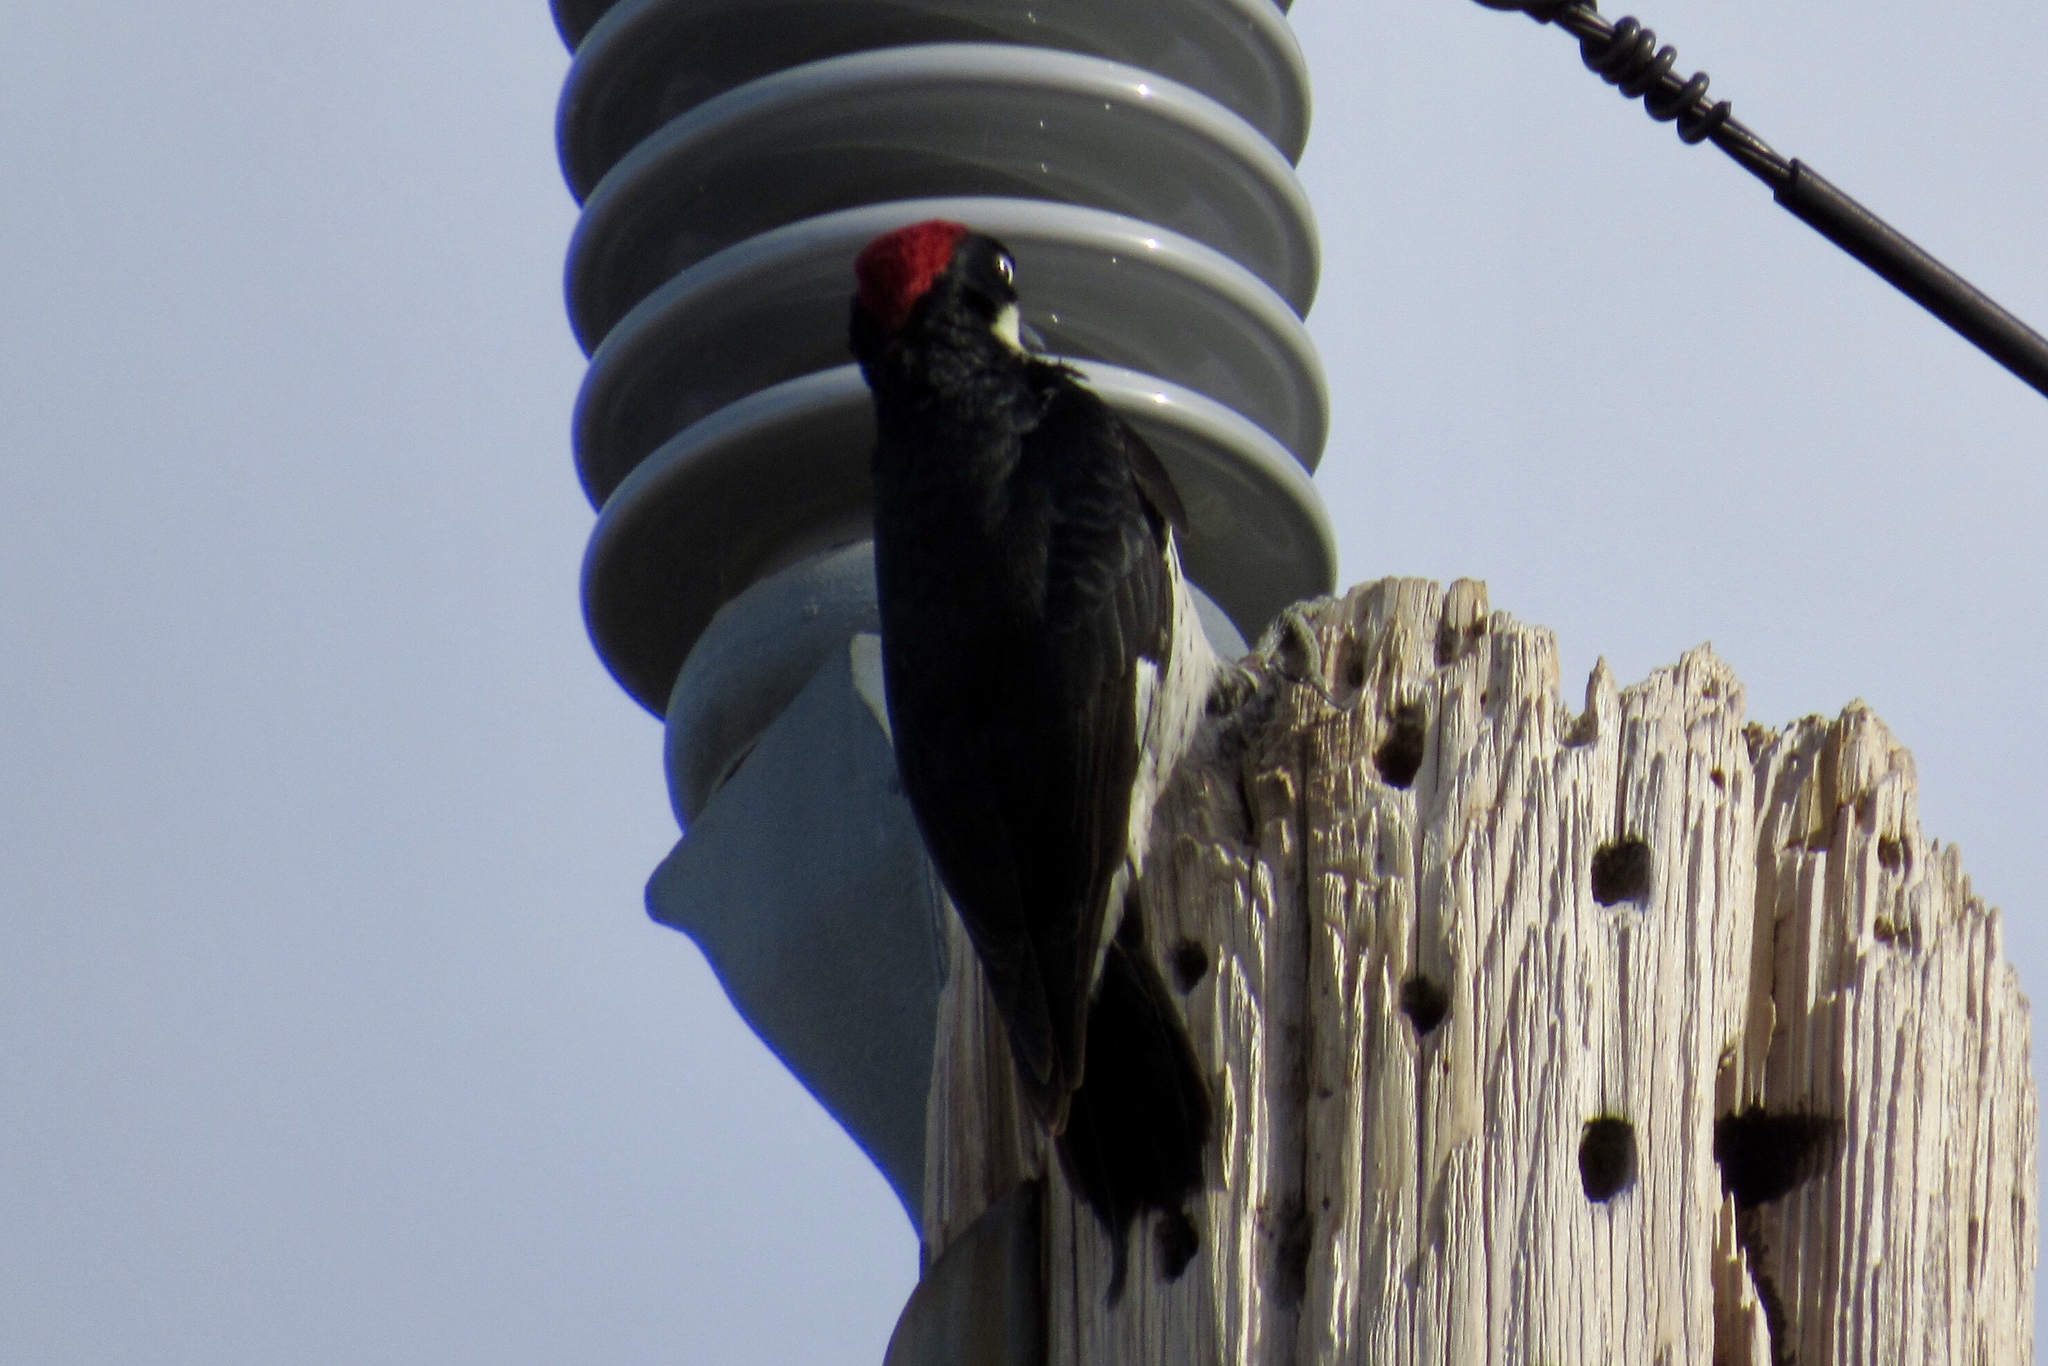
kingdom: Animalia
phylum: Chordata
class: Aves
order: Piciformes
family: Picidae
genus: Melanerpes
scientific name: Melanerpes formicivorus
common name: Acorn woodpecker
